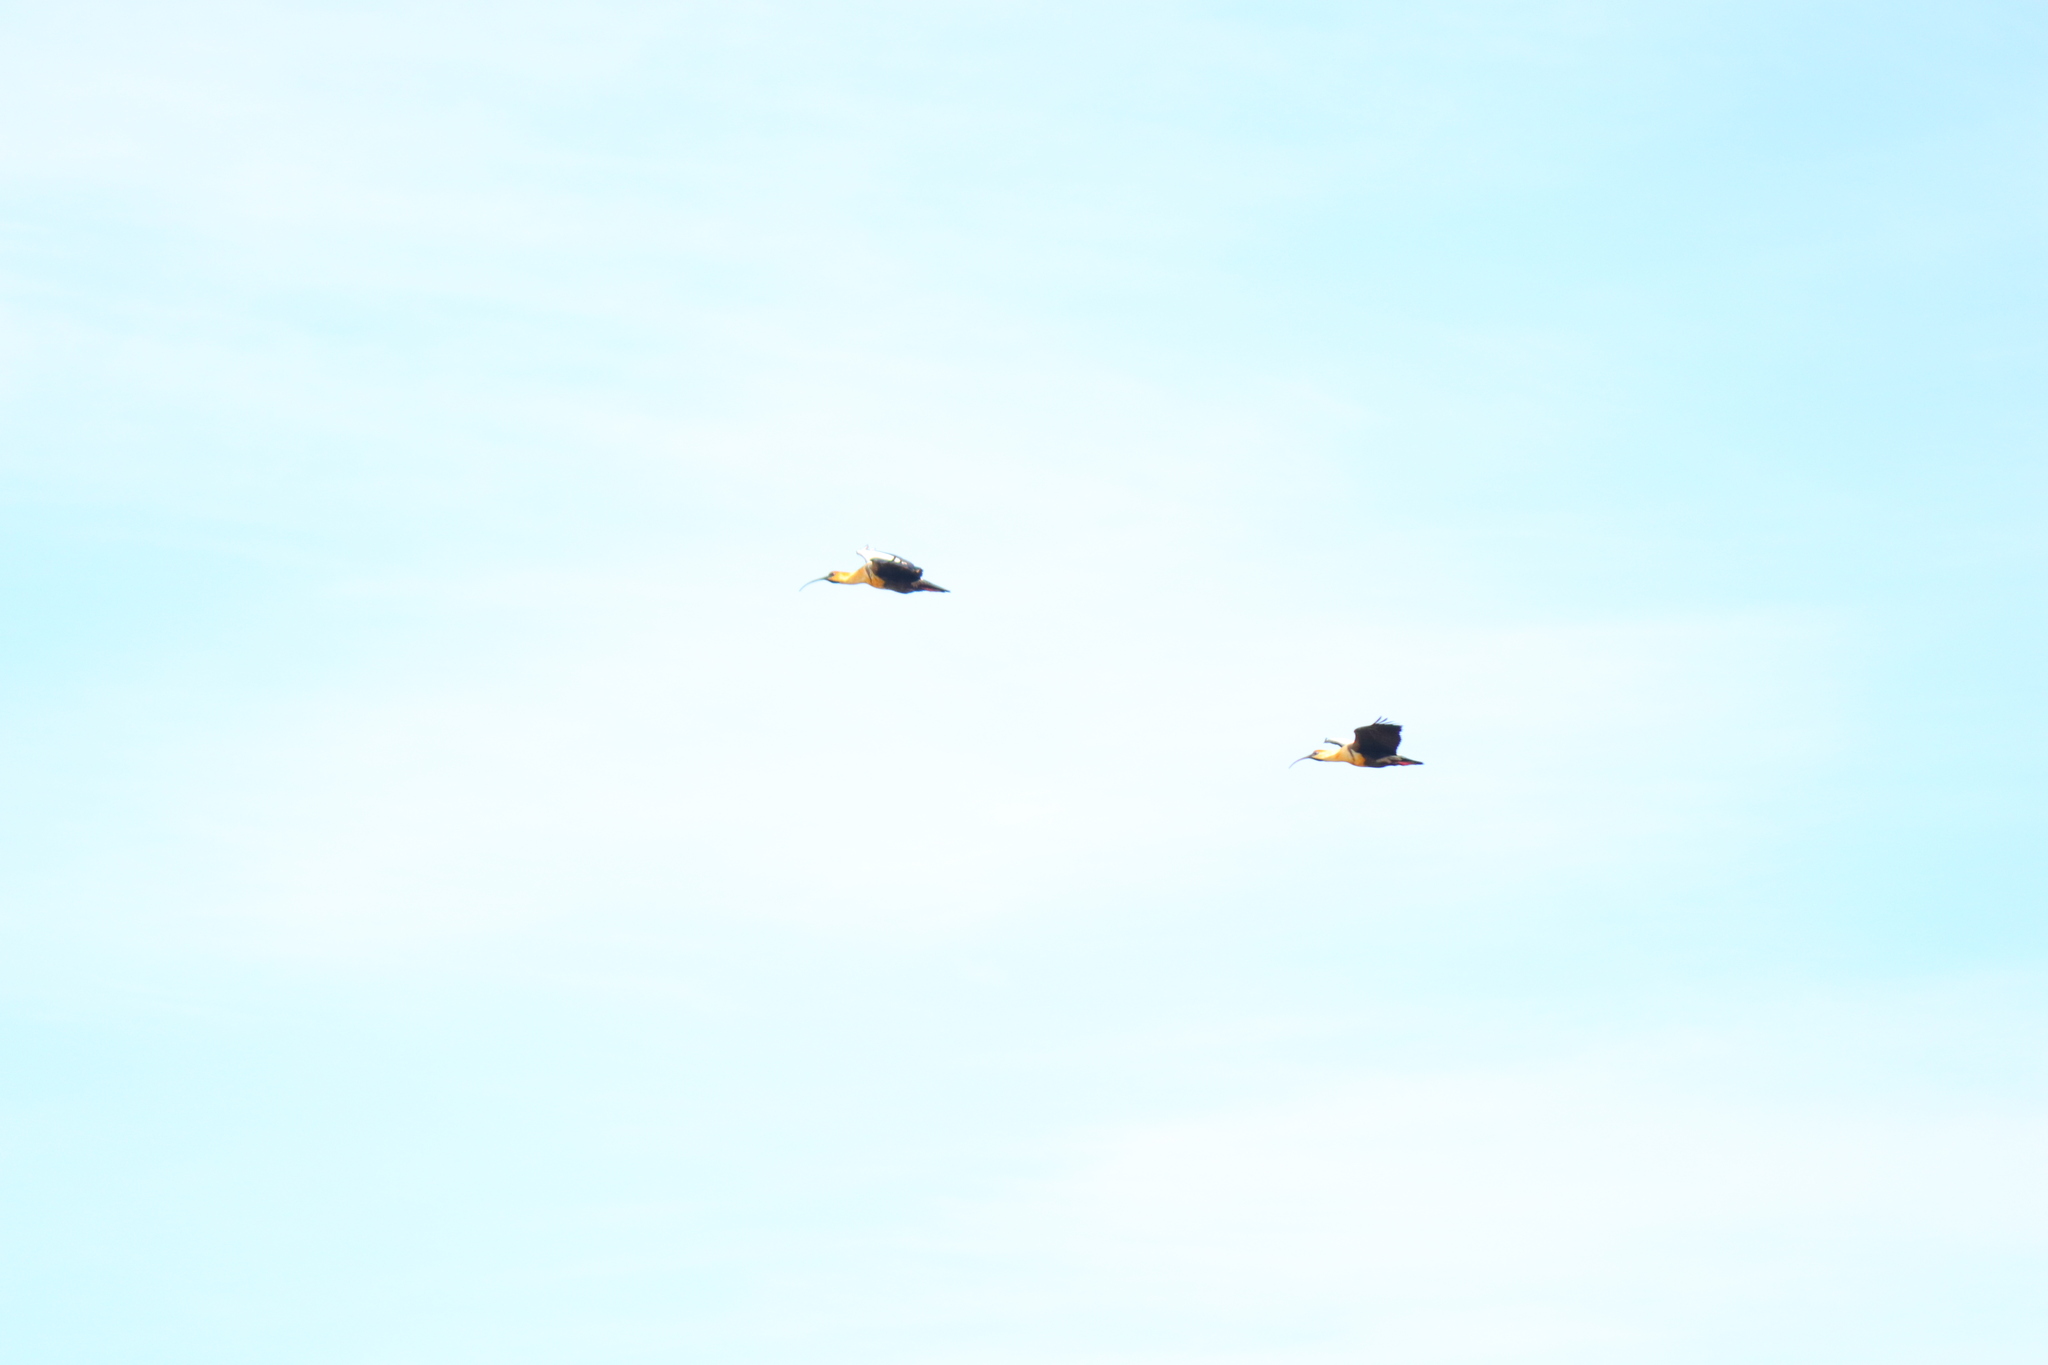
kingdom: Animalia
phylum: Chordata
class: Aves
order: Pelecaniformes
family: Threskiornithidae
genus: Theristicus
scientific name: Theristicus melanopis
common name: Black-faced ibis
